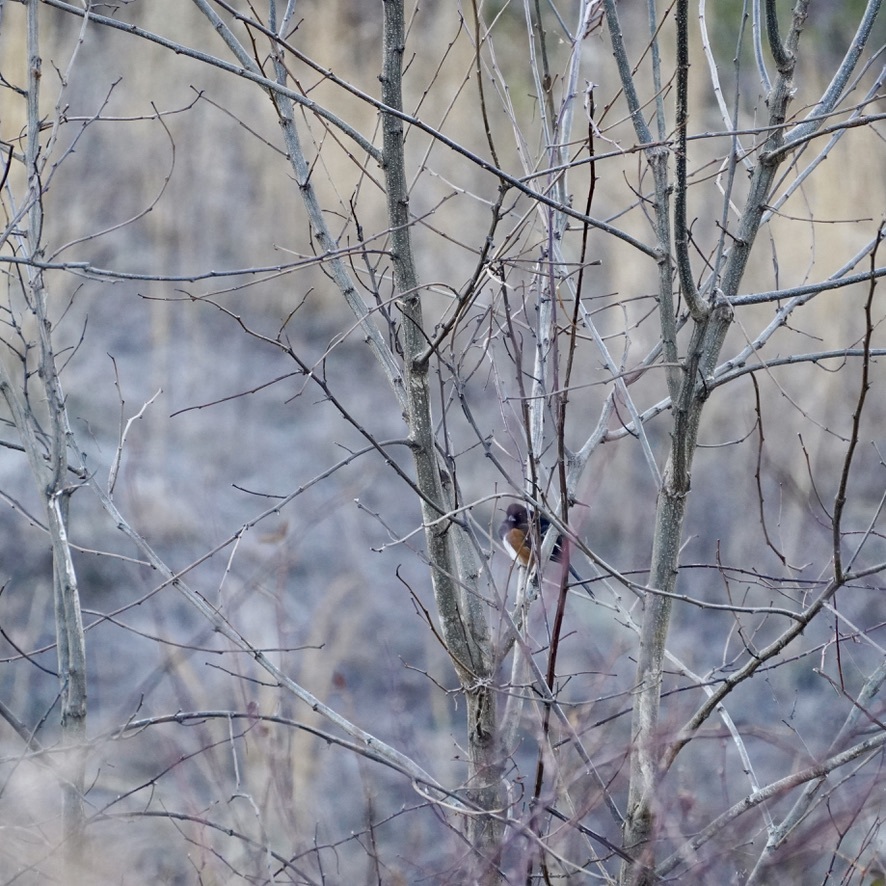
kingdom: Animalia
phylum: Chordata
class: Aves
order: Passeriformes
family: Passerellidae
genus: Pipilo
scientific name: Pipilo erythrophthalmus
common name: Eastern towhee
